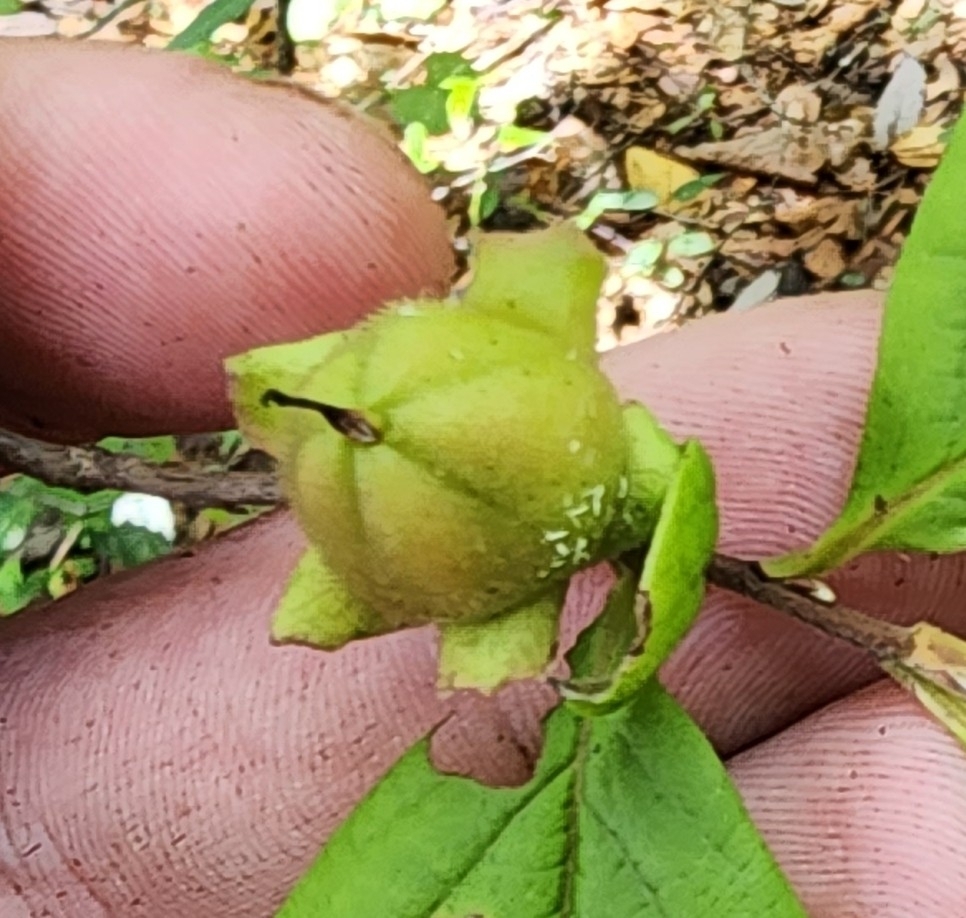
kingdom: Plantae
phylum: Tracheophyta
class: Magnoliopsida
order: Ericales
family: Theaceae
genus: Stewartia
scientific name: Stewartia malacodendron
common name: Virginia stewartia
